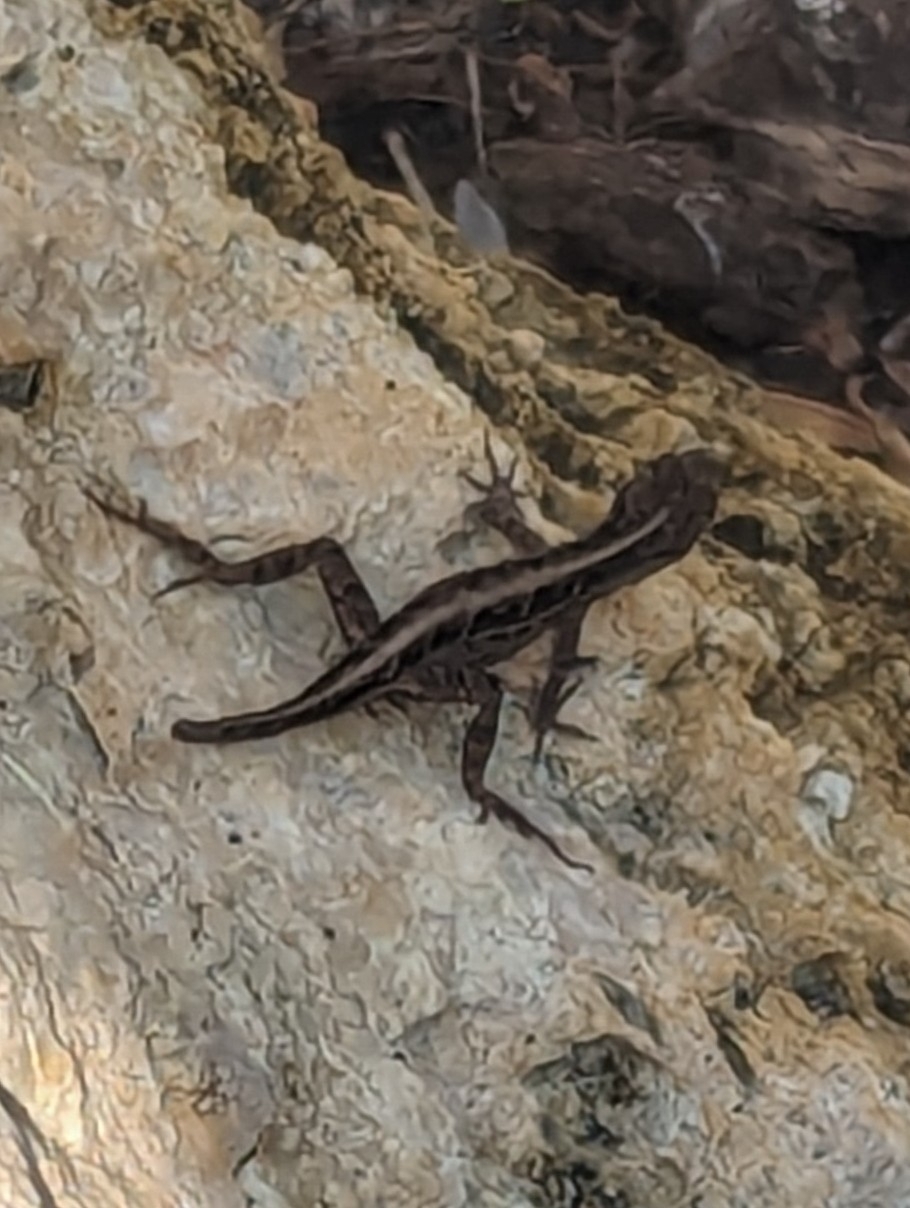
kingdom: Animalia
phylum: Chordata
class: Squamata
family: Dactyloidae
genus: Anolis
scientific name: Anolis sagrei
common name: Brown anole
